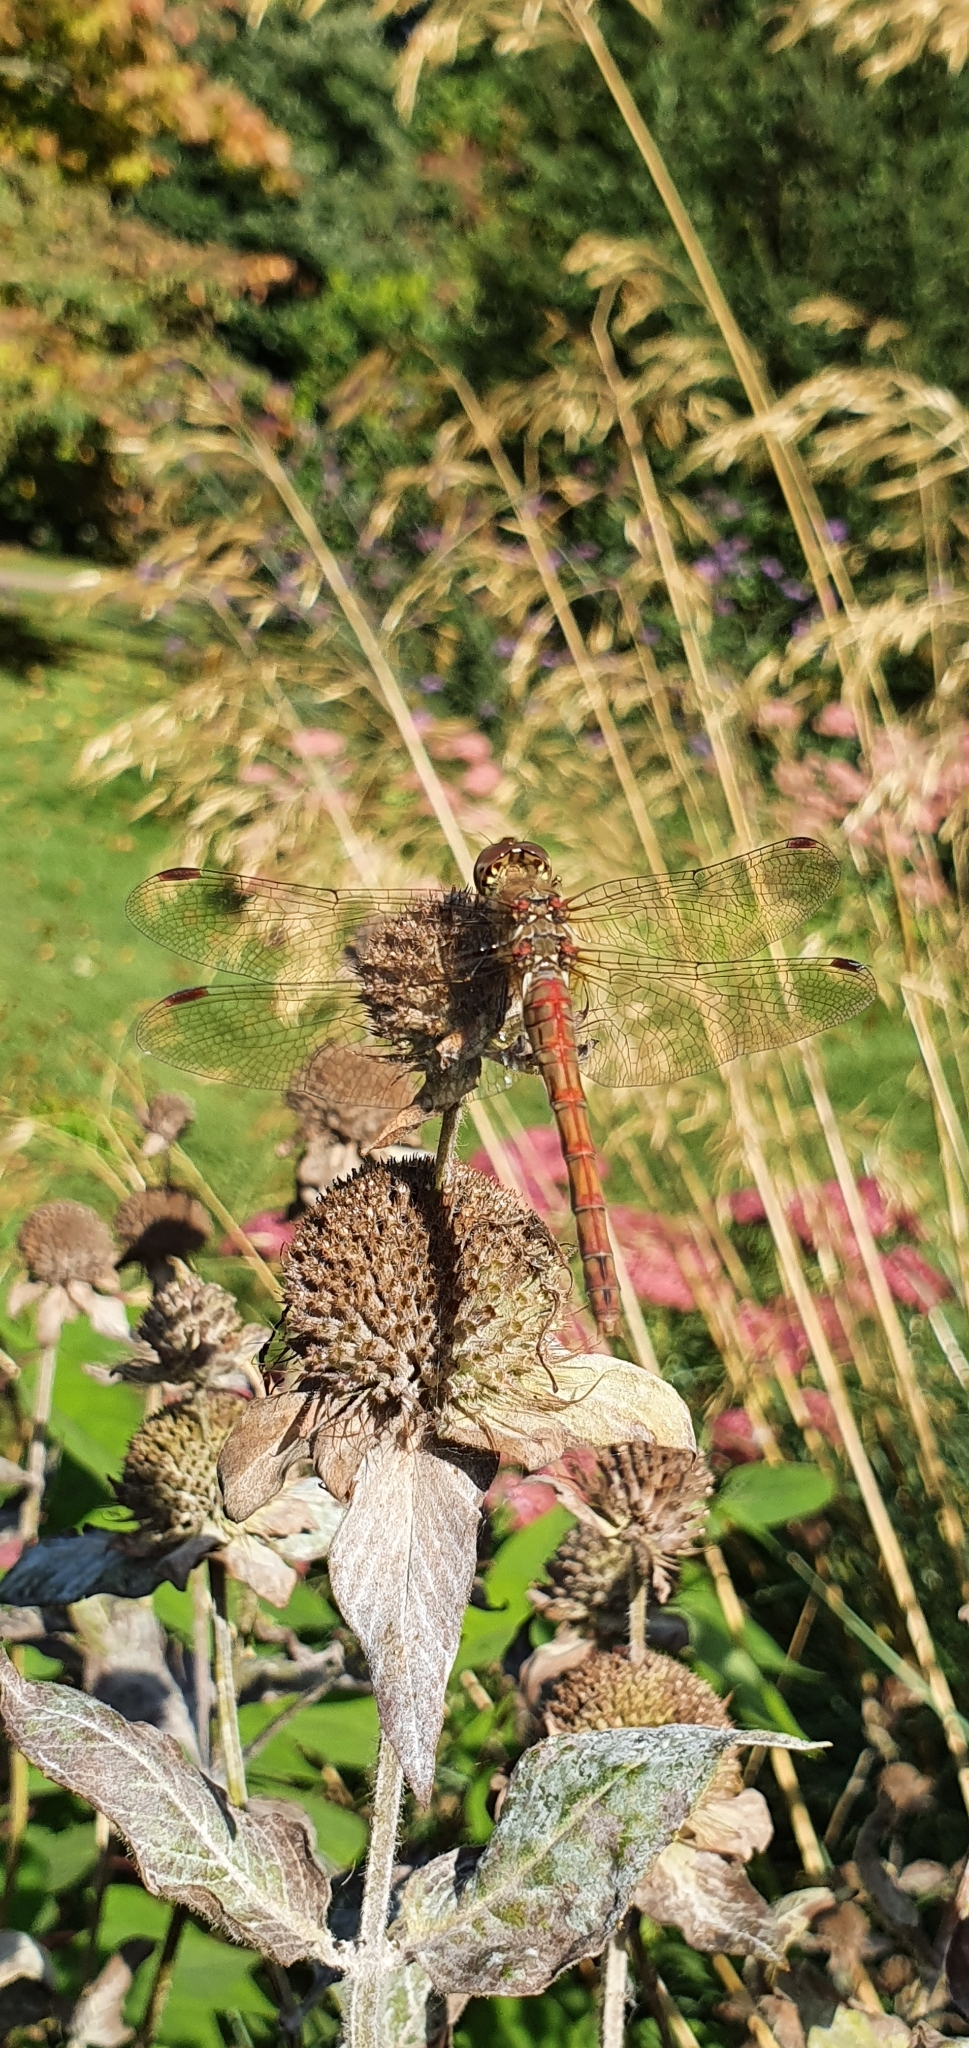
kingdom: Animalia
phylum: Arthropoda
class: Insecta
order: Odonata
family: Libellulidae
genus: Sympetrum
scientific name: Sympetrum striolatum
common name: Common darter
